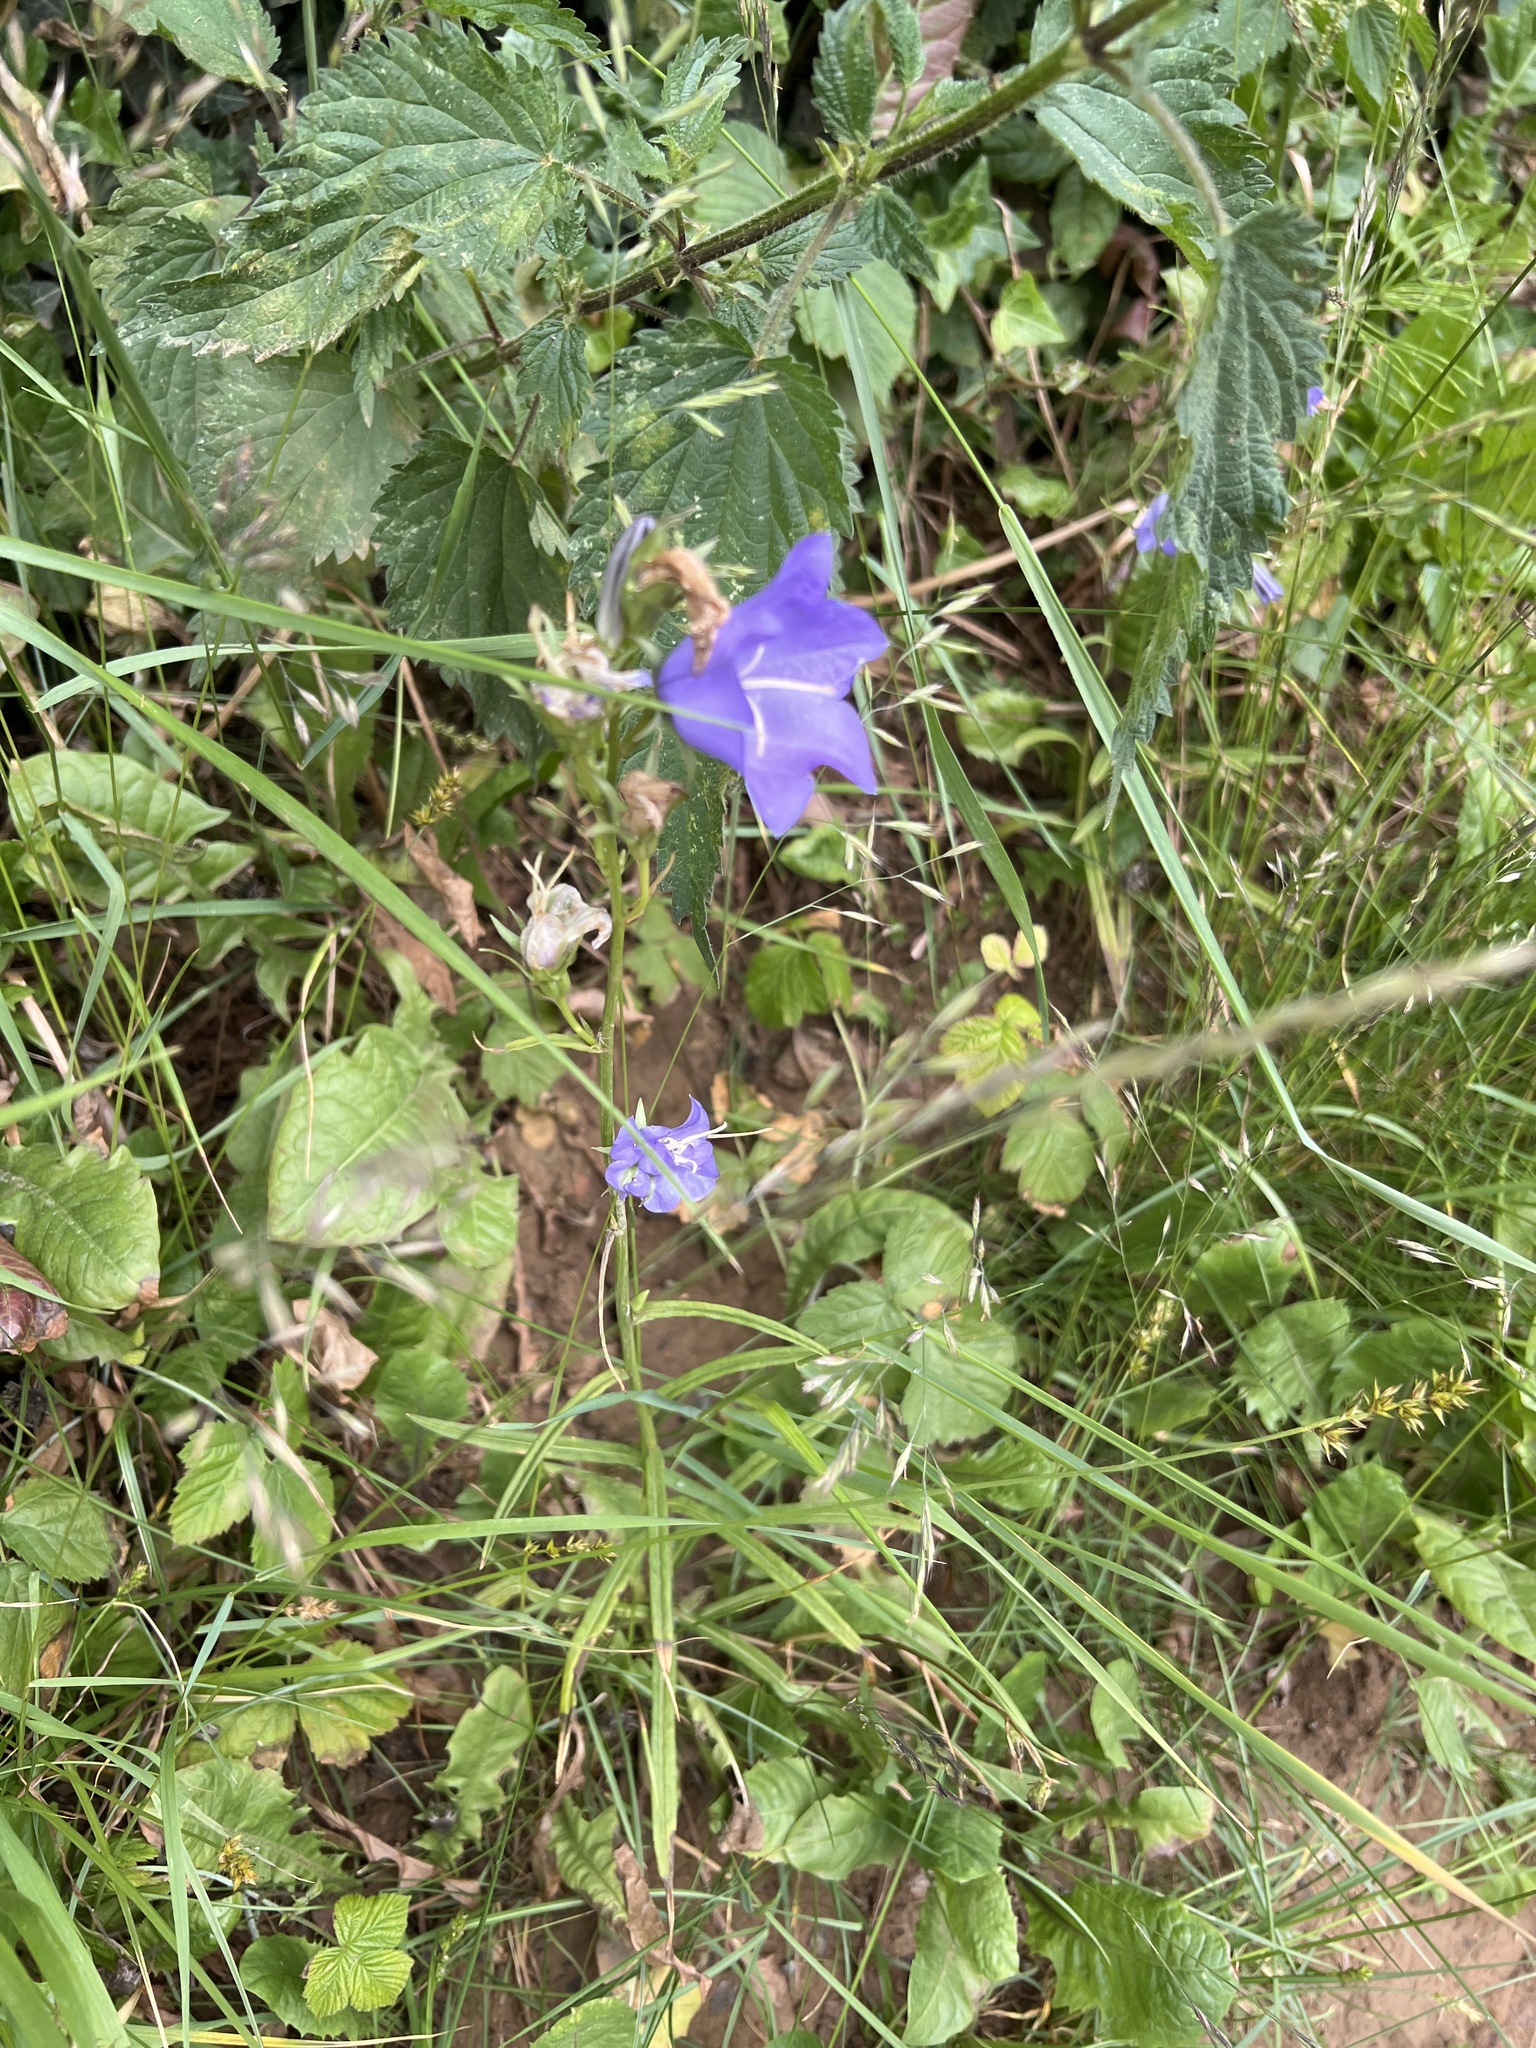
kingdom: Plantae
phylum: Tracheophyta
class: Magnoliopsida
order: Asterales
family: Campanulaceae
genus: Campanula
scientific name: Campanula persicifolia
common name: Peach-leaved bellflower
